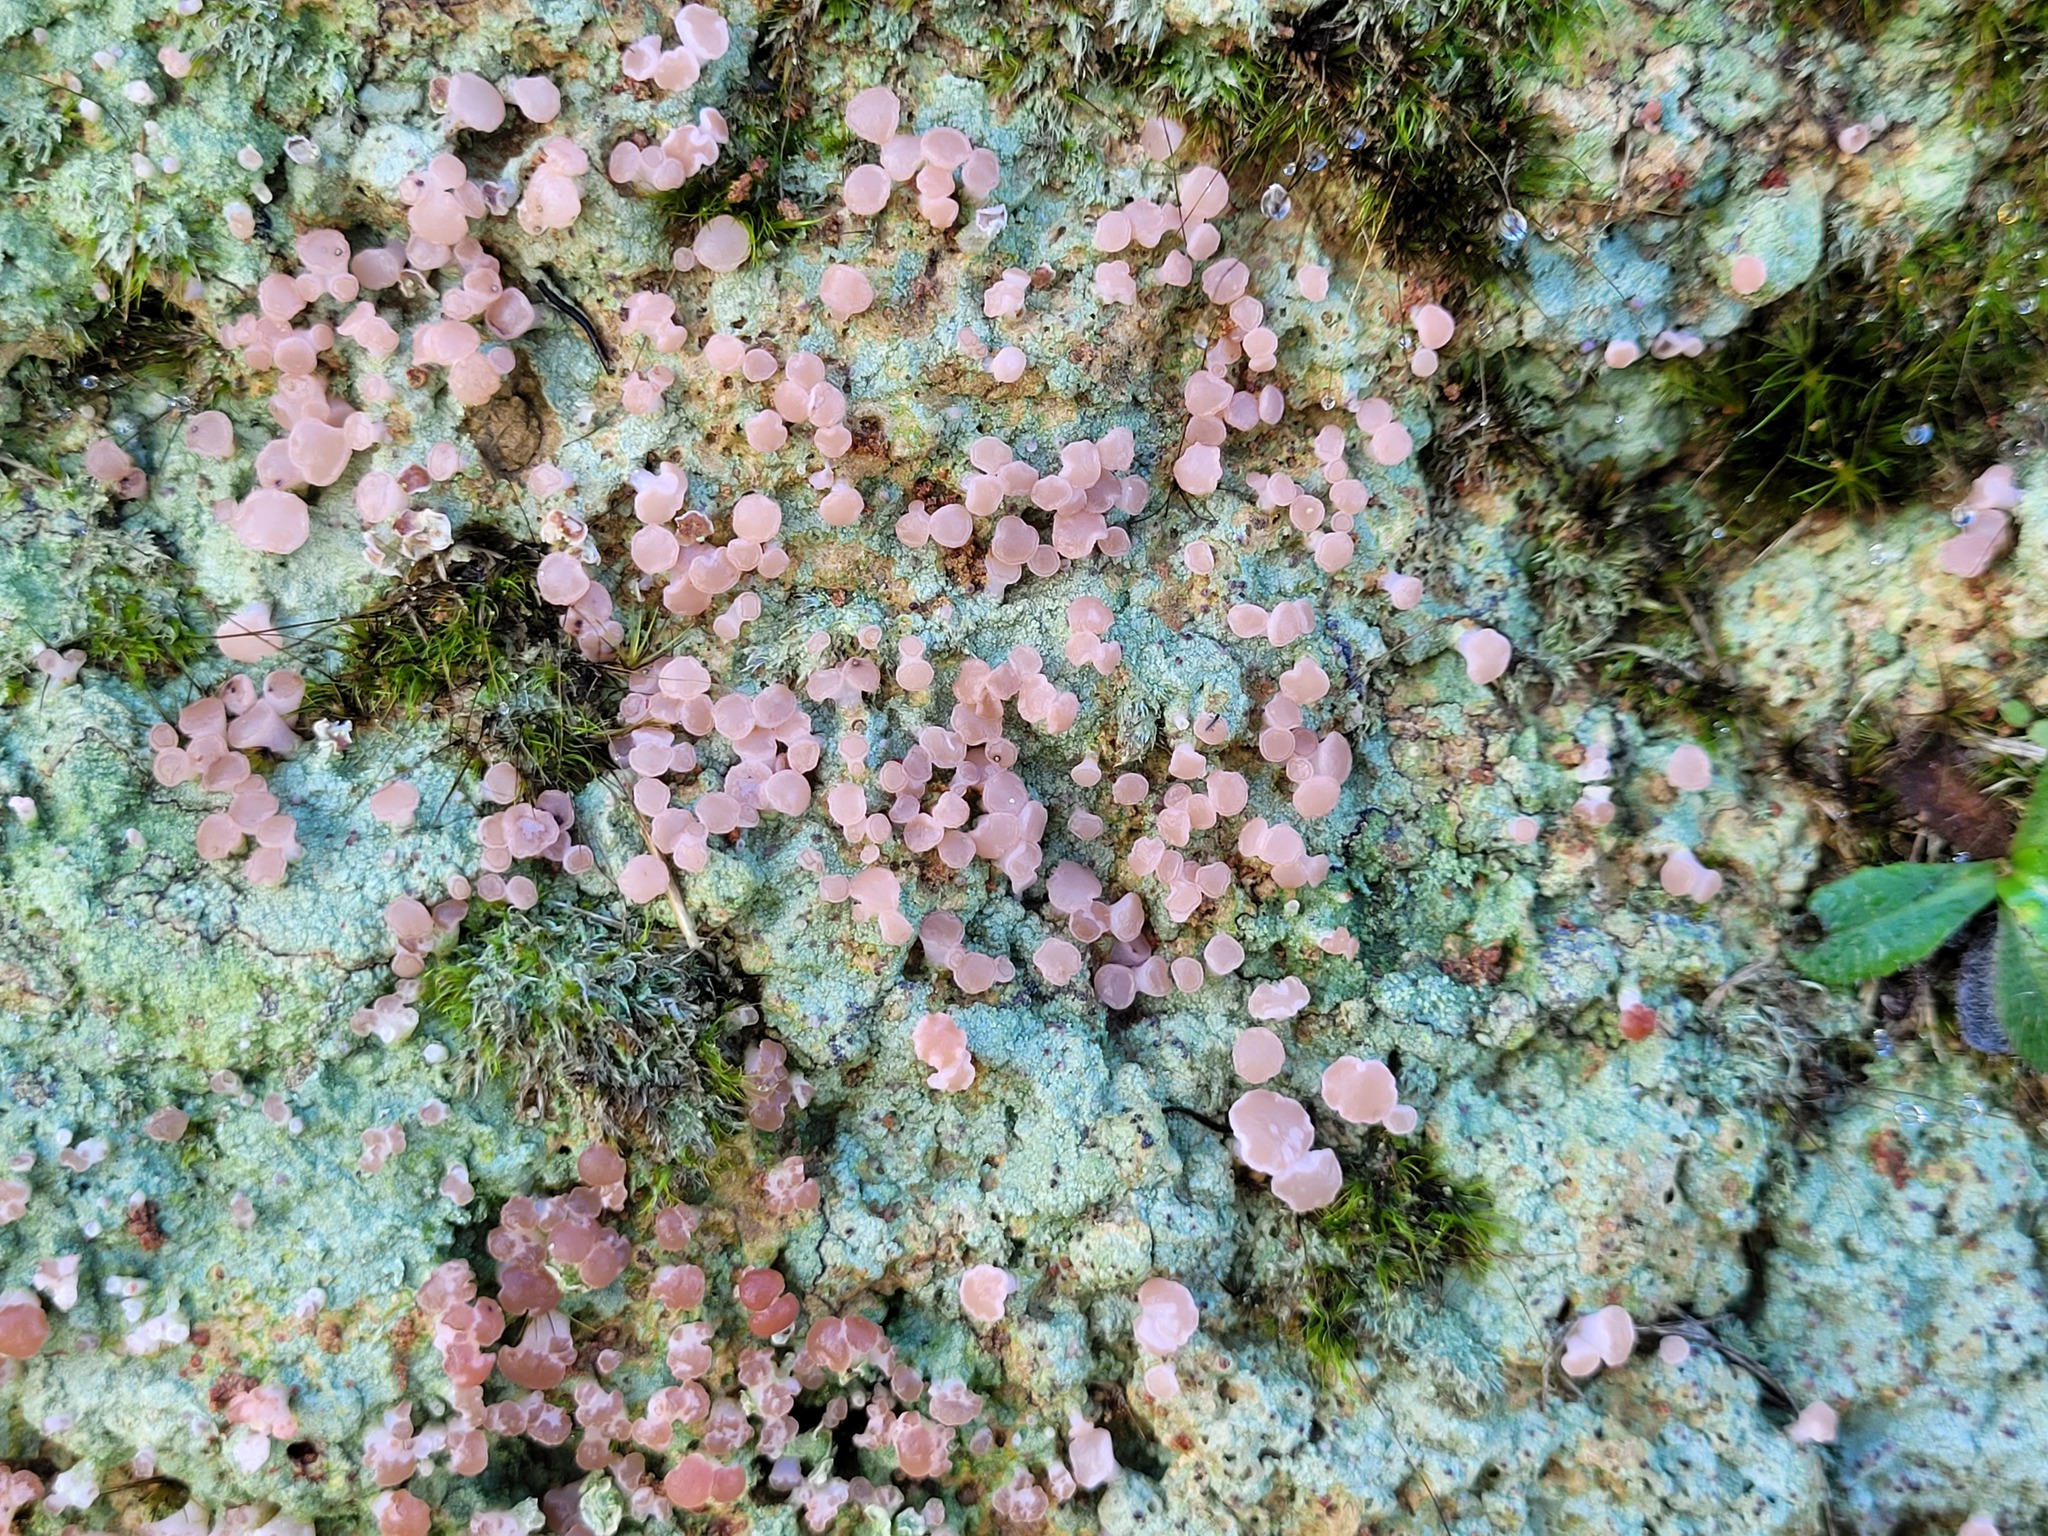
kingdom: Fungi
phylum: Ascomycota
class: Lecanoromycetes
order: Baeomycetales
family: Baeomycetaceae
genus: Baeomyces
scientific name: Baeomyces heteromorphus
